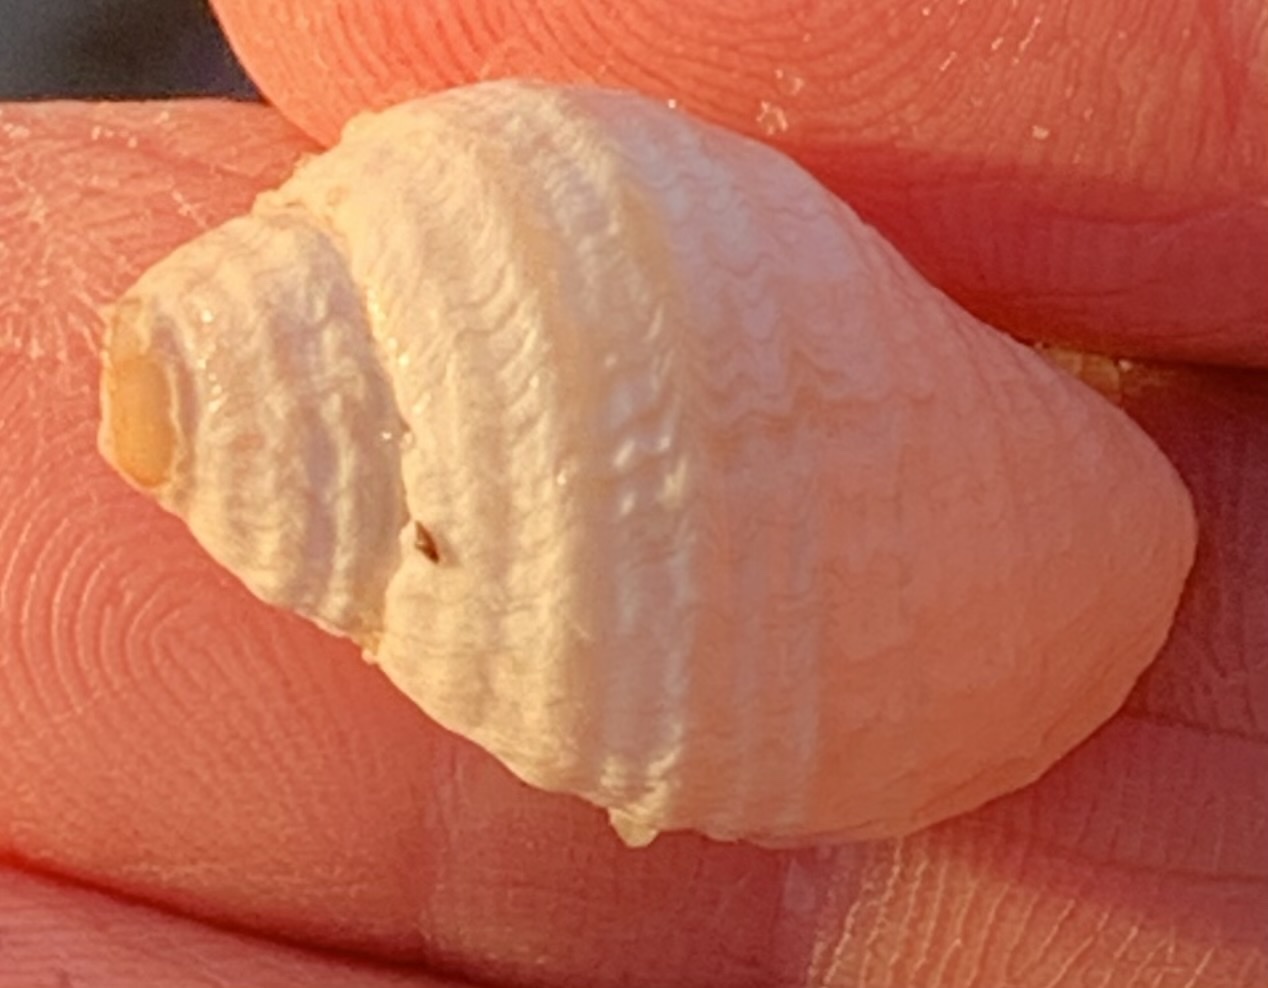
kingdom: Animalia
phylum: Mollusca
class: Gastropoda
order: Neogastropoda
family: Muricidae
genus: Nucella
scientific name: Nucella lapillus
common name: Dog whelk
